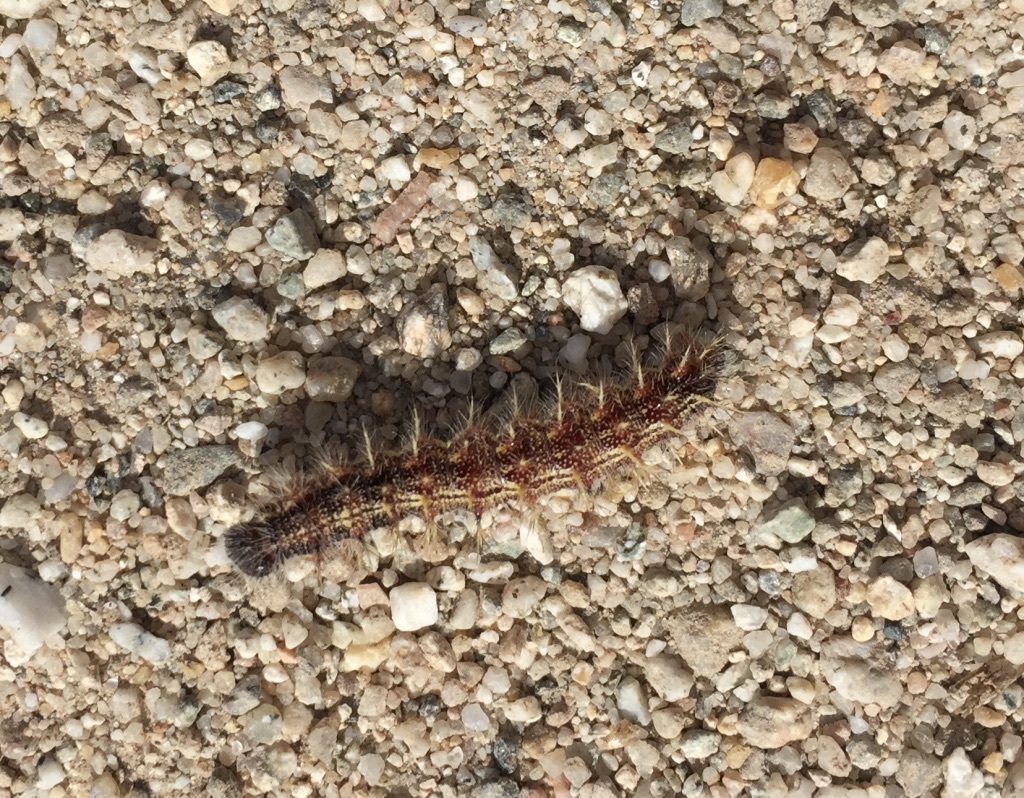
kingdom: Animalia
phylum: Arthropoda
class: Insecta
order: Lepidoptera
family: Nymphalidae
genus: Vanessa
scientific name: Vanessa cardui
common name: Painted lady
